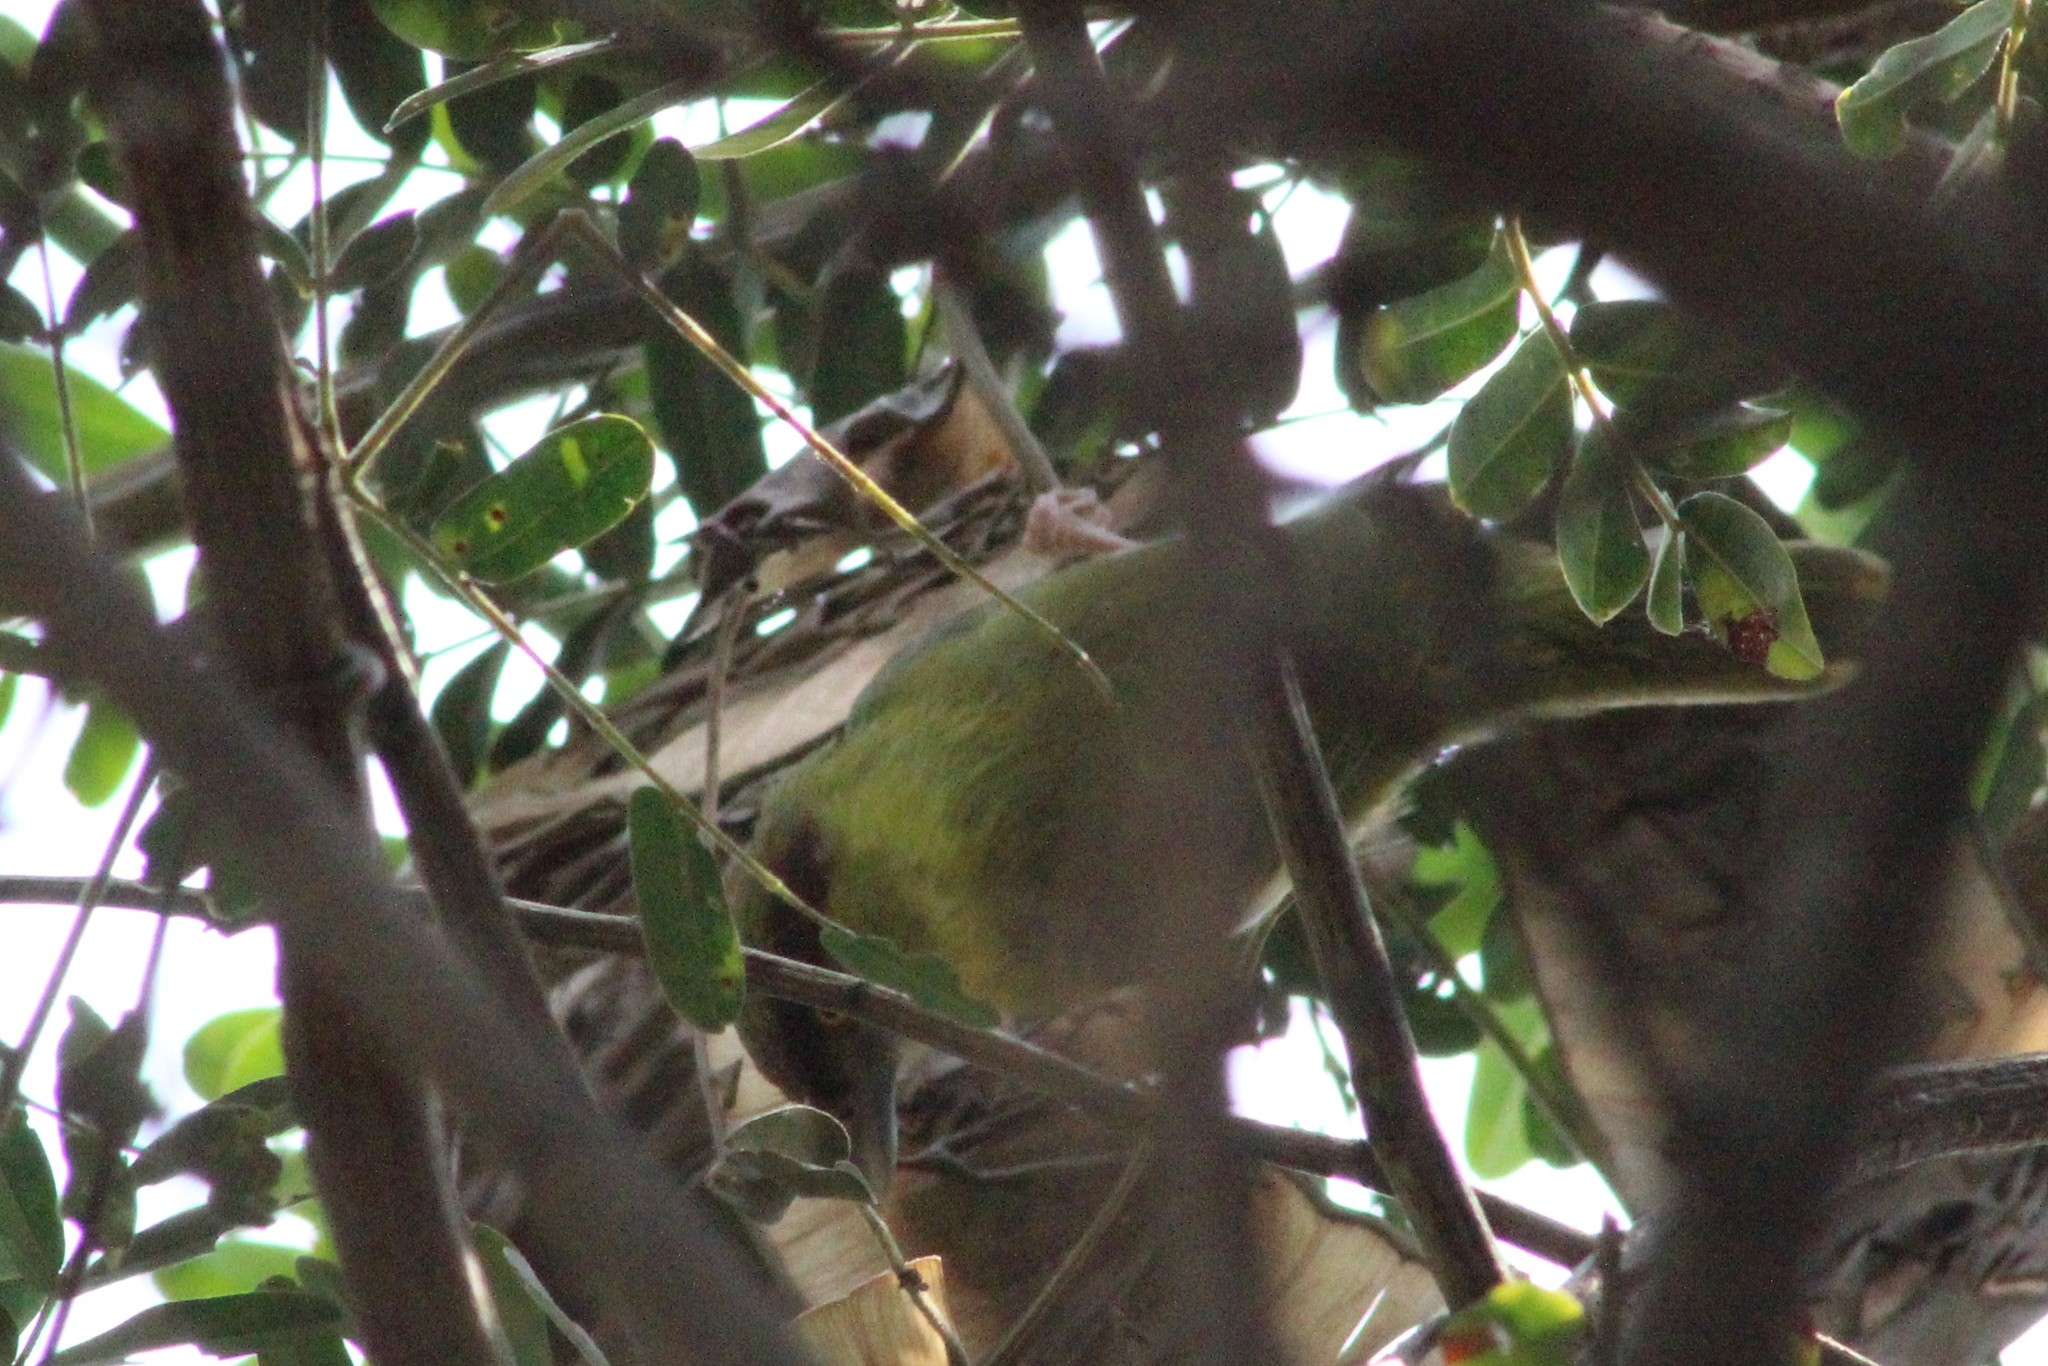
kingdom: Animalia
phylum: Chordata
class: Aves
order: Passeriformes
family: Vireonidae
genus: Cyclarhis
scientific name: Cyclarhis gujanensis
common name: Rufous-browed peppershrike
